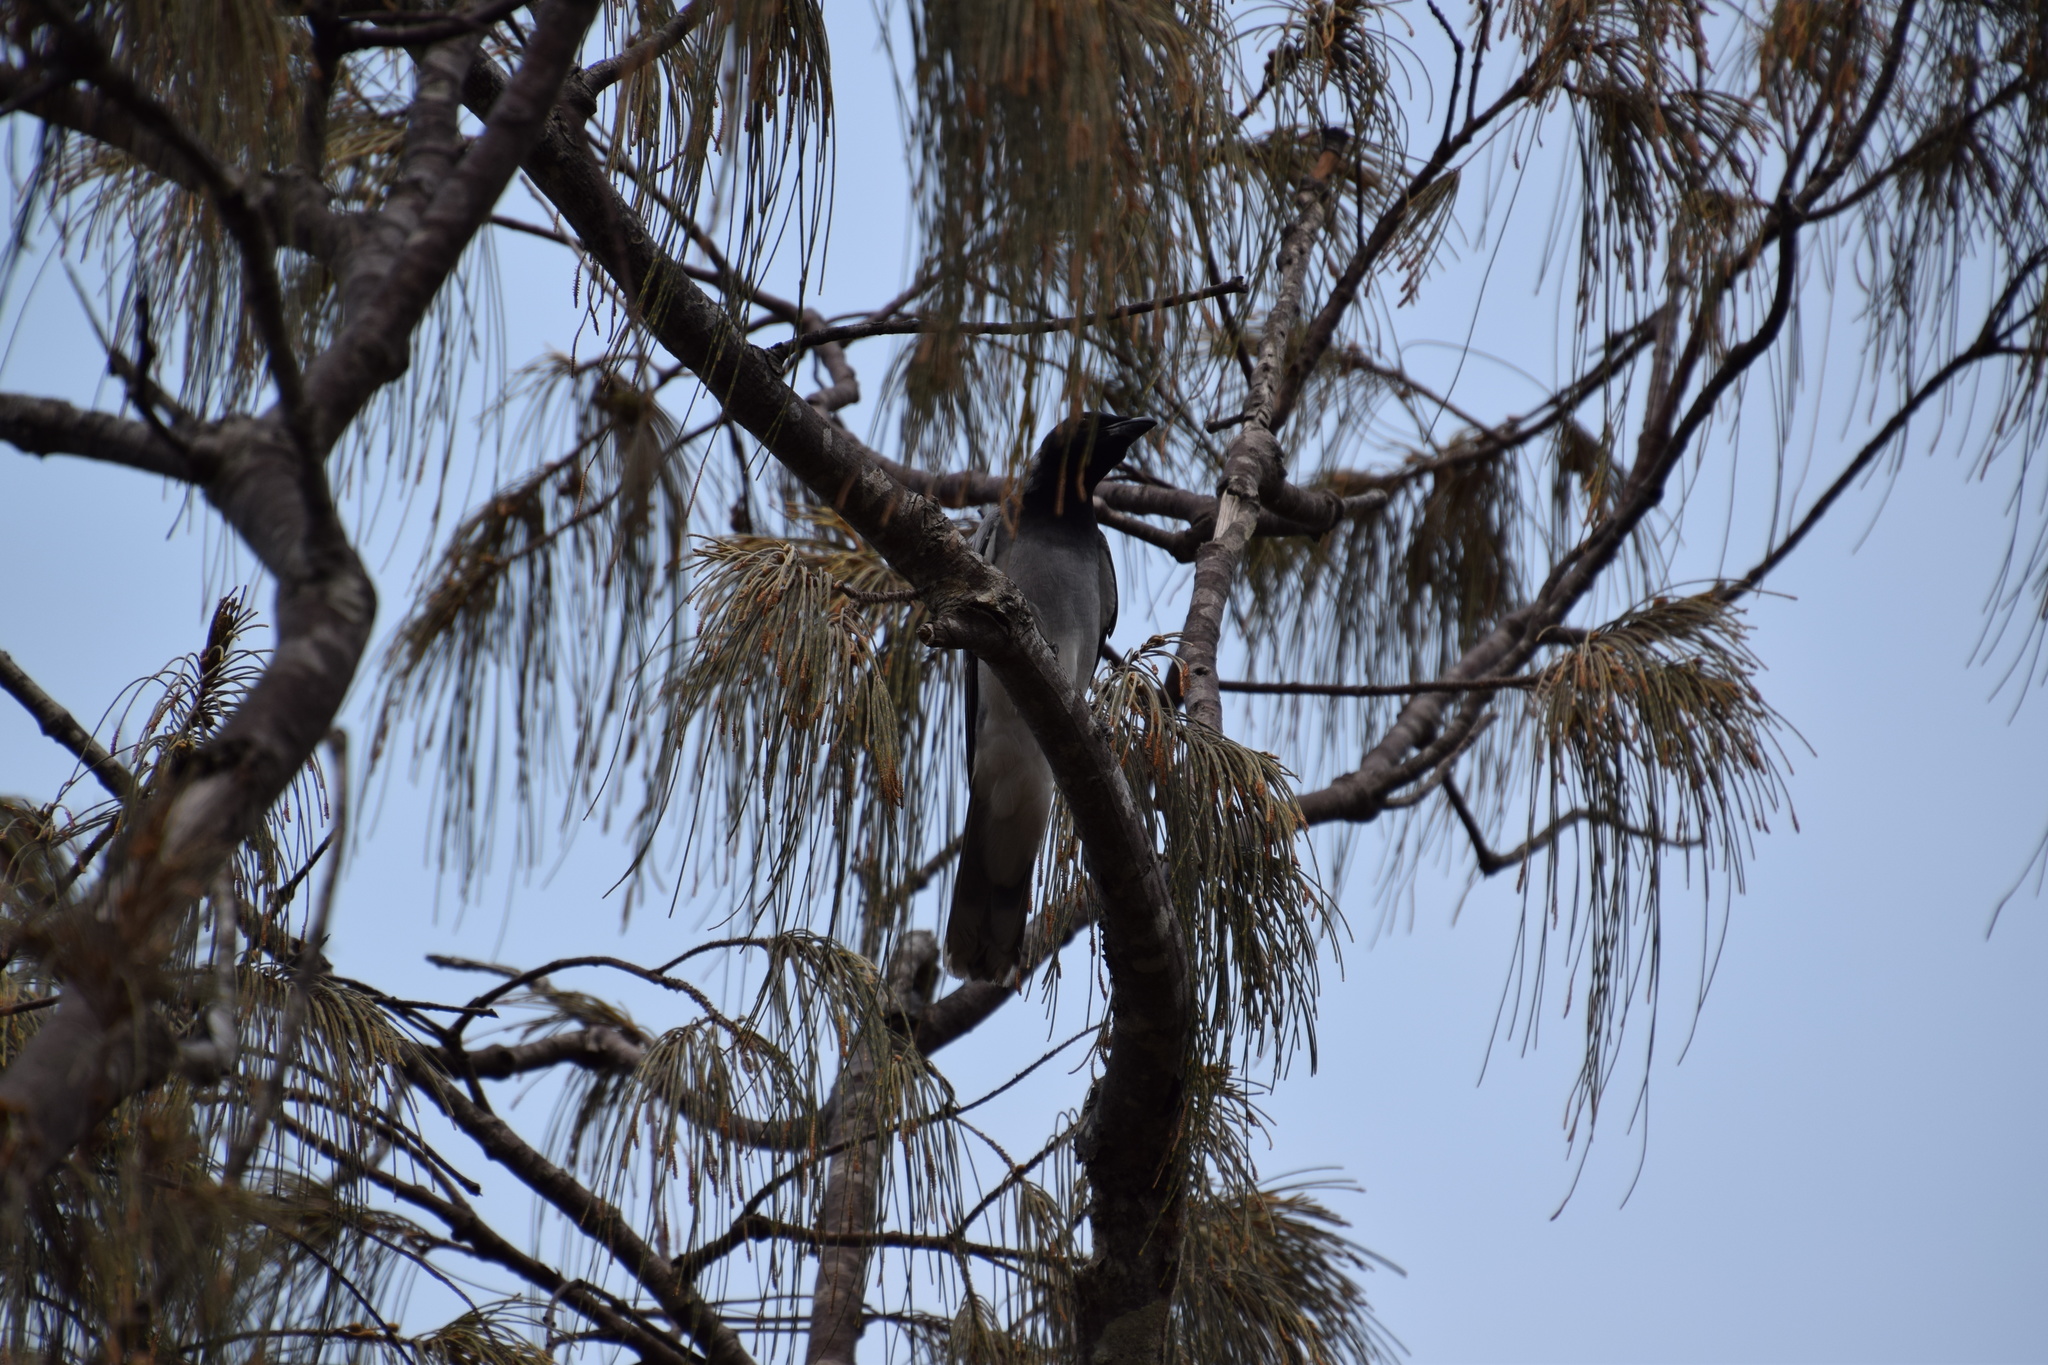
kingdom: Animalia
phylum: Chordata
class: Aves
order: Passeriformes
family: Campephagidae
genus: Coracina
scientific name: Coracina novaehollandiae
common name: Black-faced cuckooshrike
